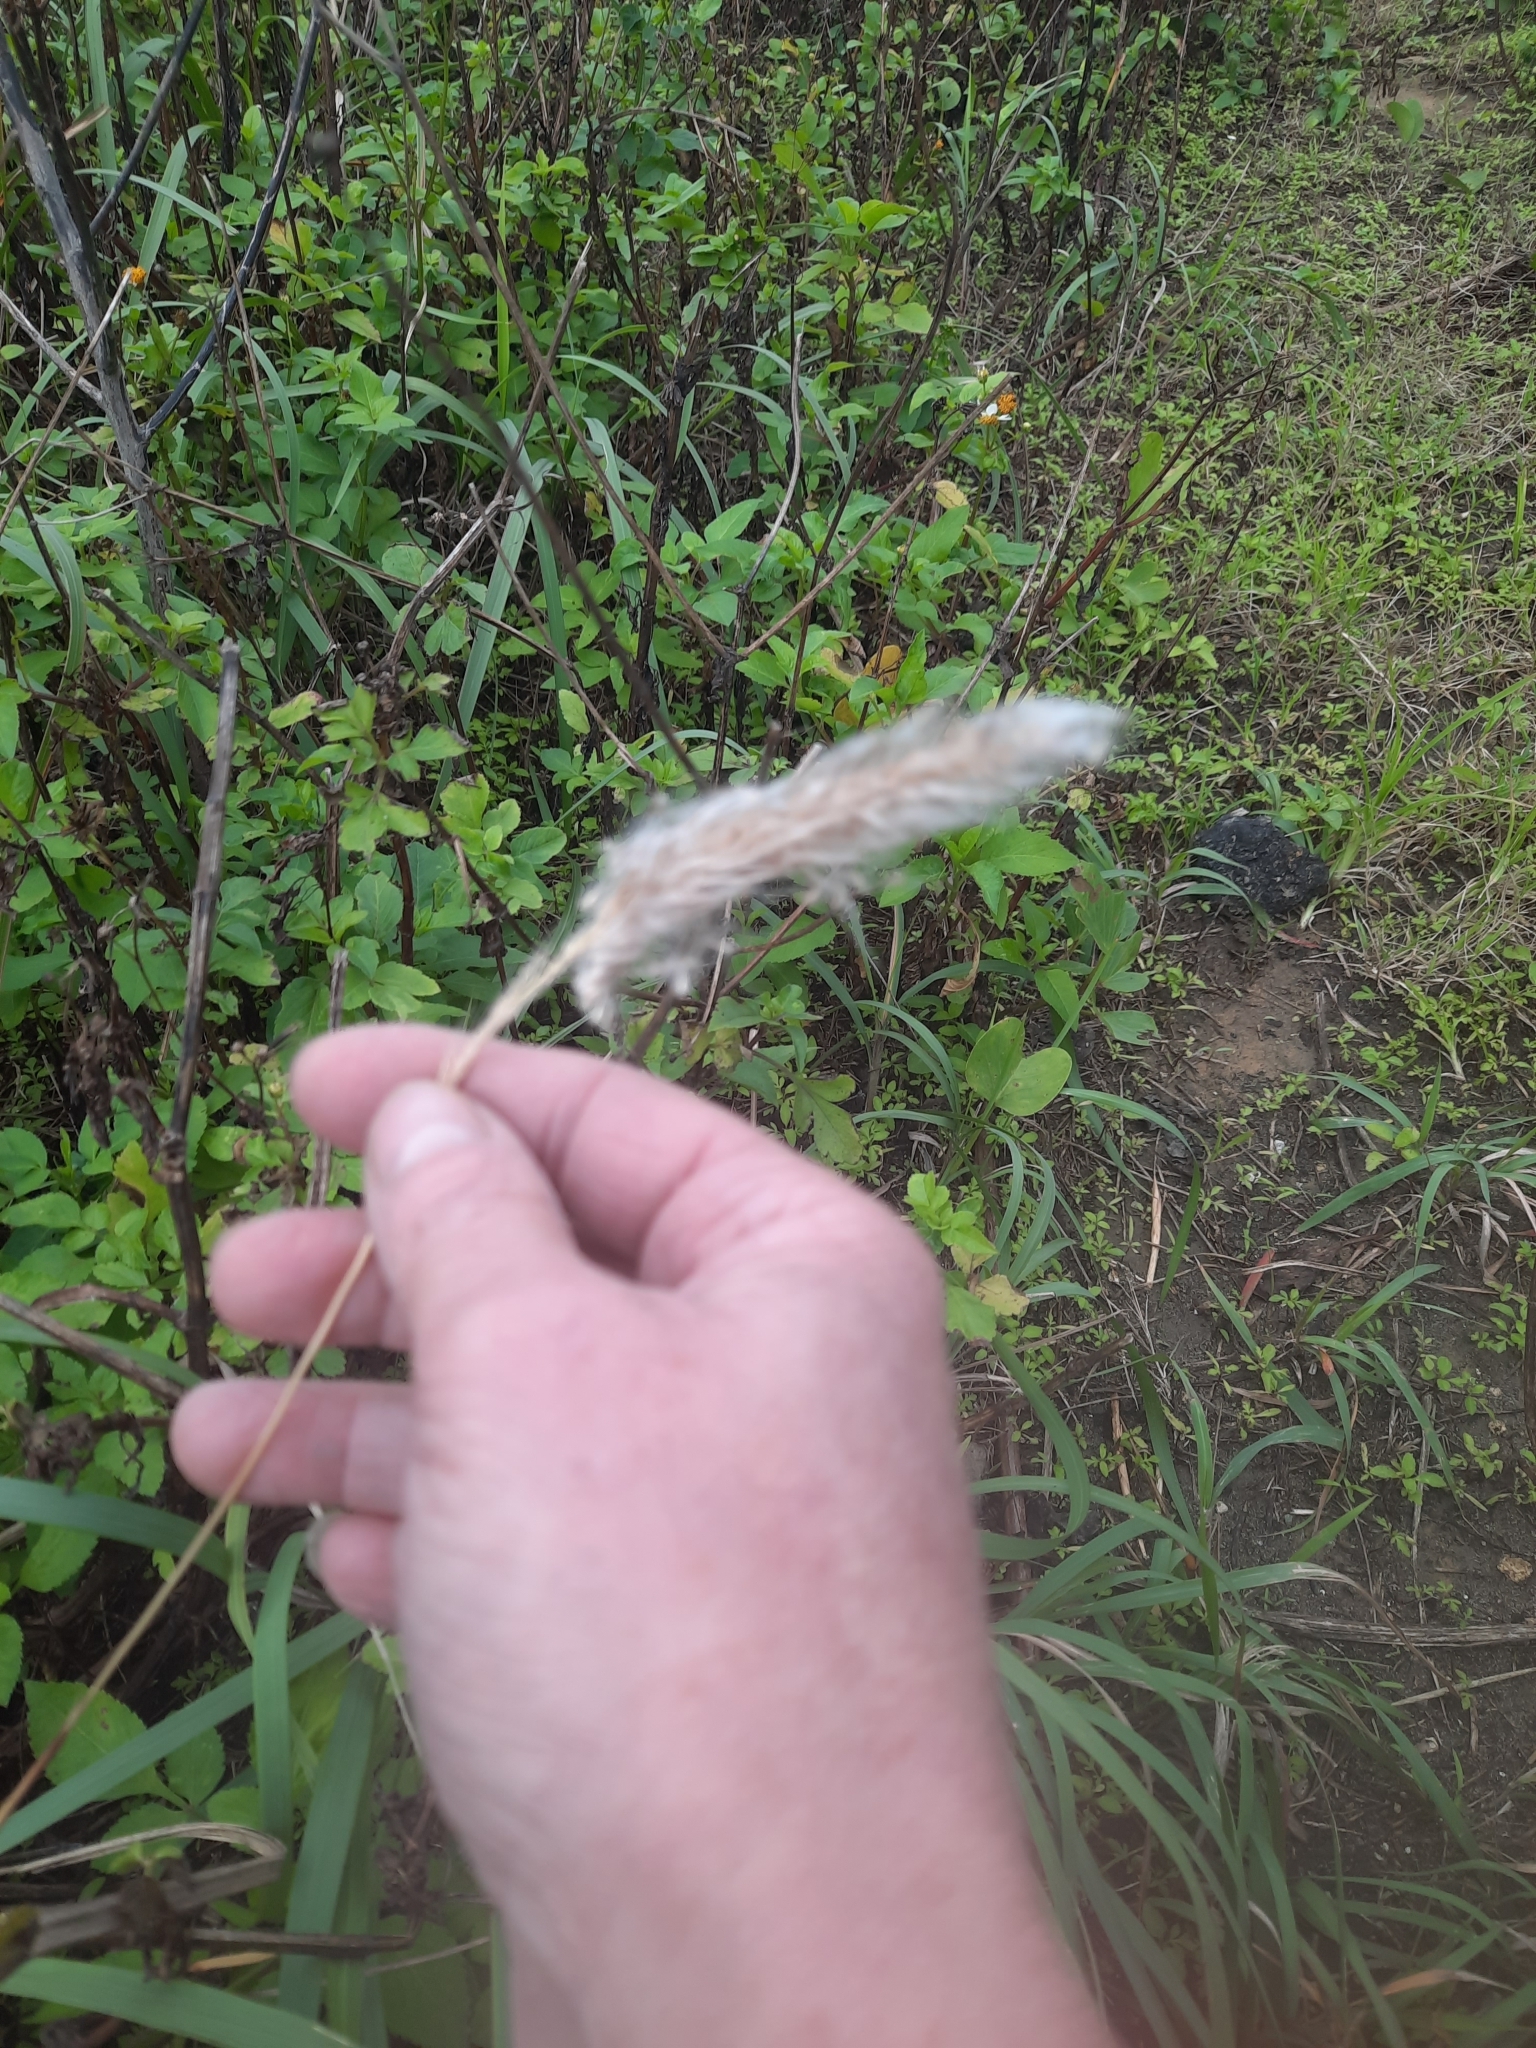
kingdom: Plantae
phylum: Tracheophyta
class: Liliopsida
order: Poales
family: Poaceae
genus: Imperata
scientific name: Imperata cylindrica
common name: Cogongrass
